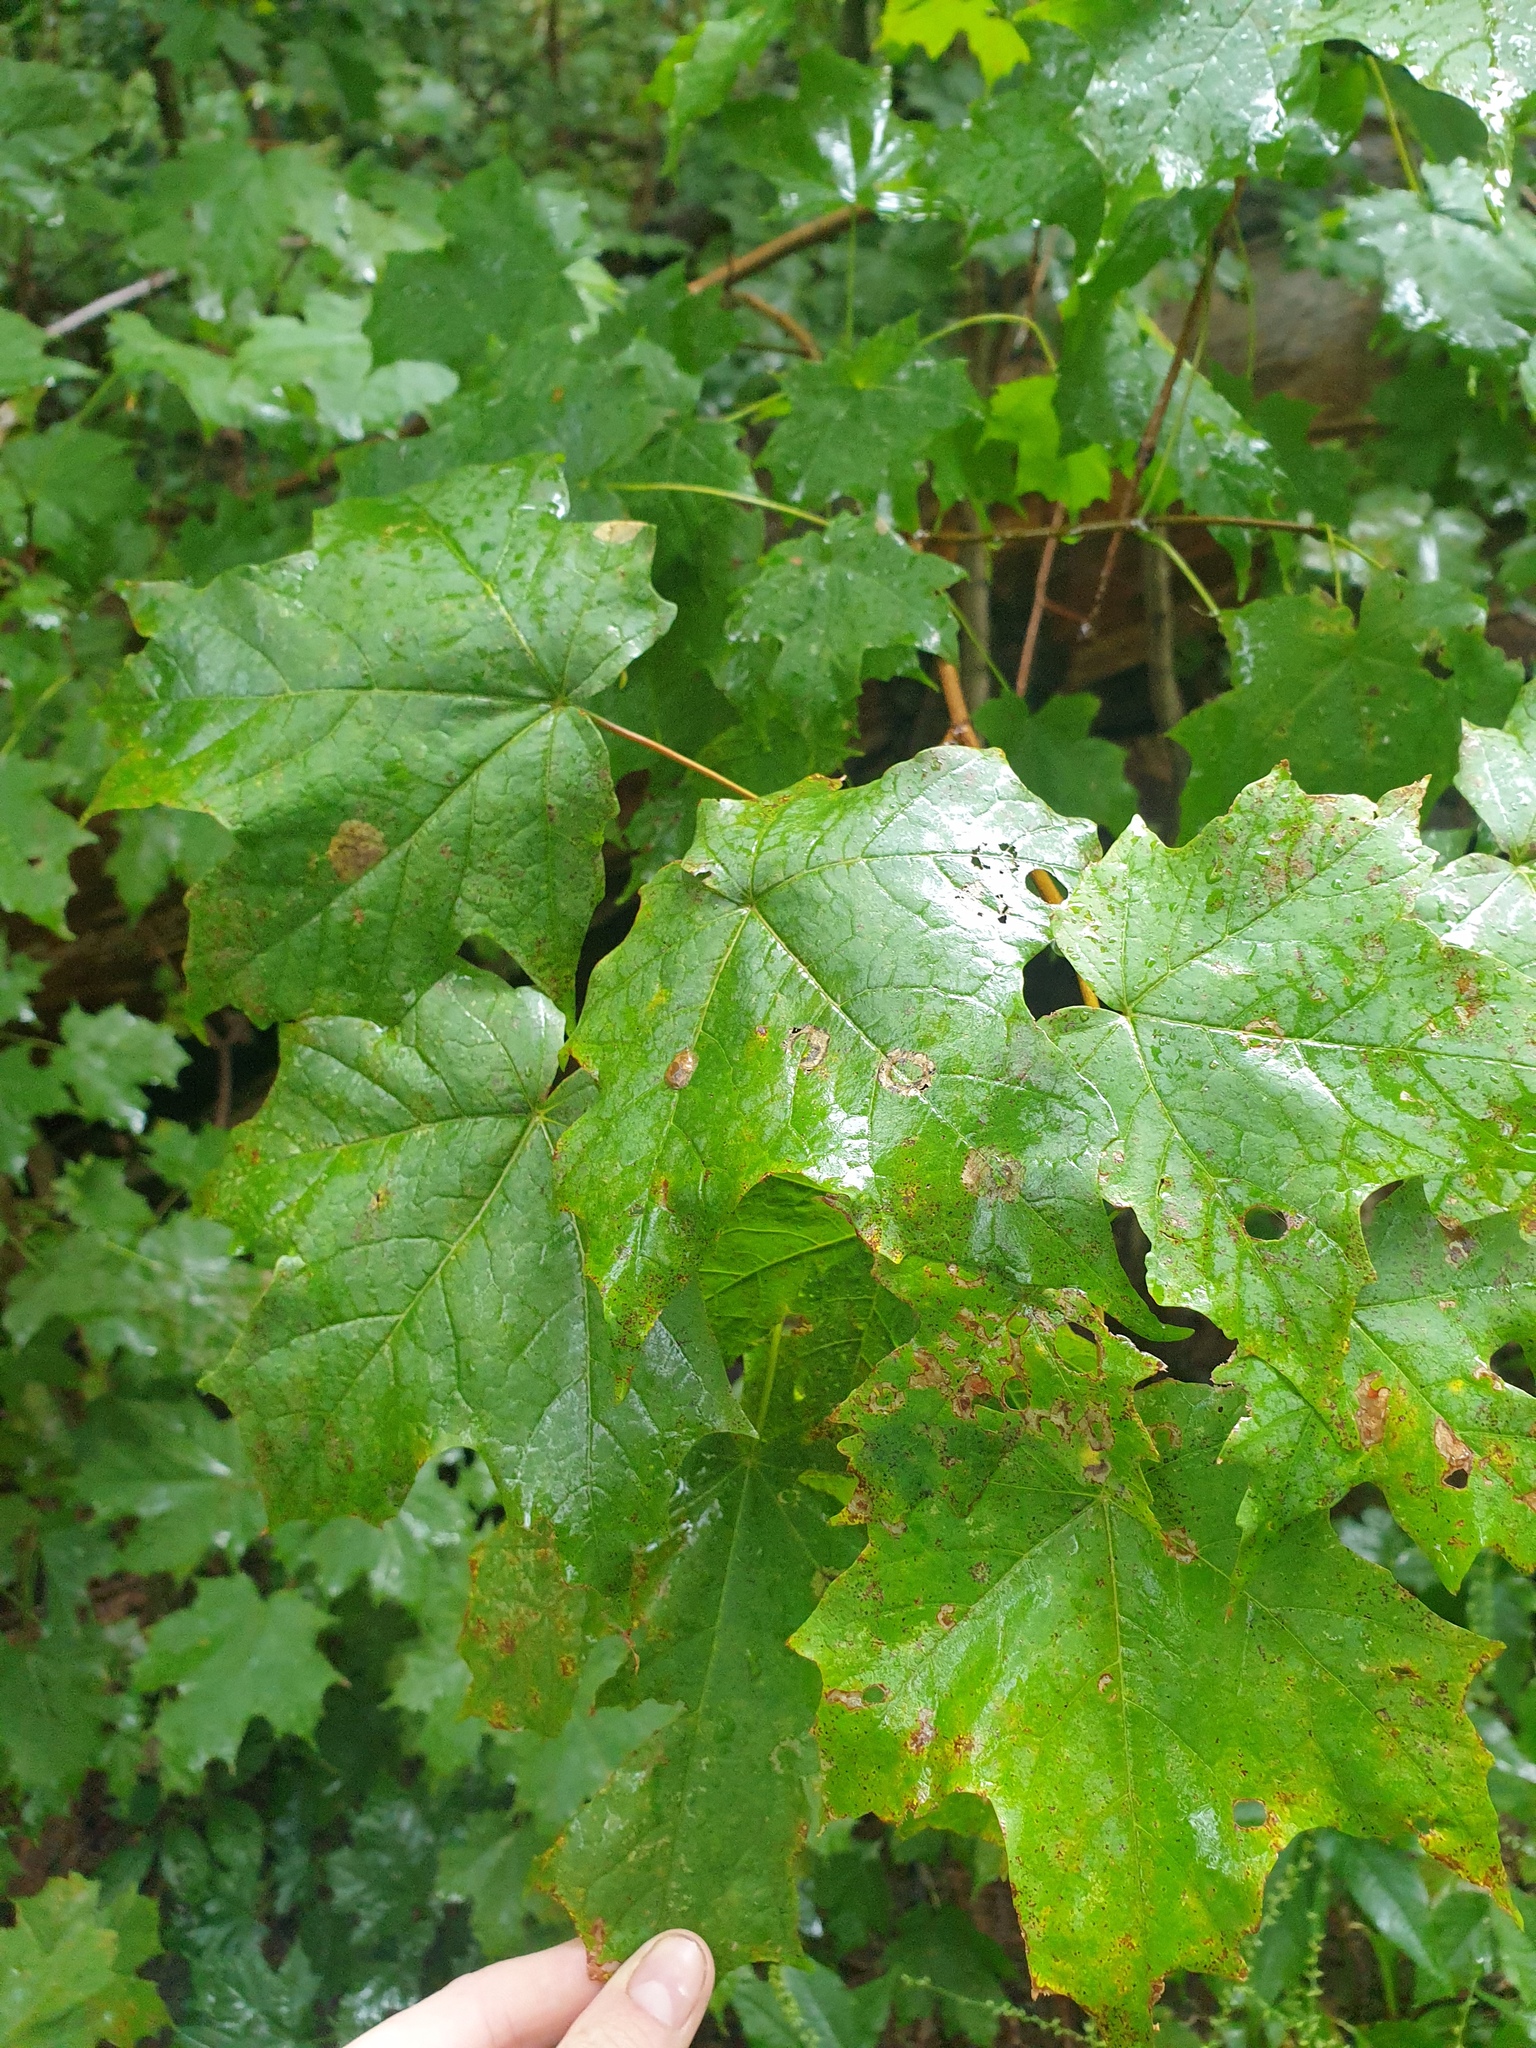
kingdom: Plantae
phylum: Tracheophyta
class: Magnoliopsida
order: Sapindales
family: Sapindaceae
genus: Acer
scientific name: Acer saccharum
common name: Sugar maple
